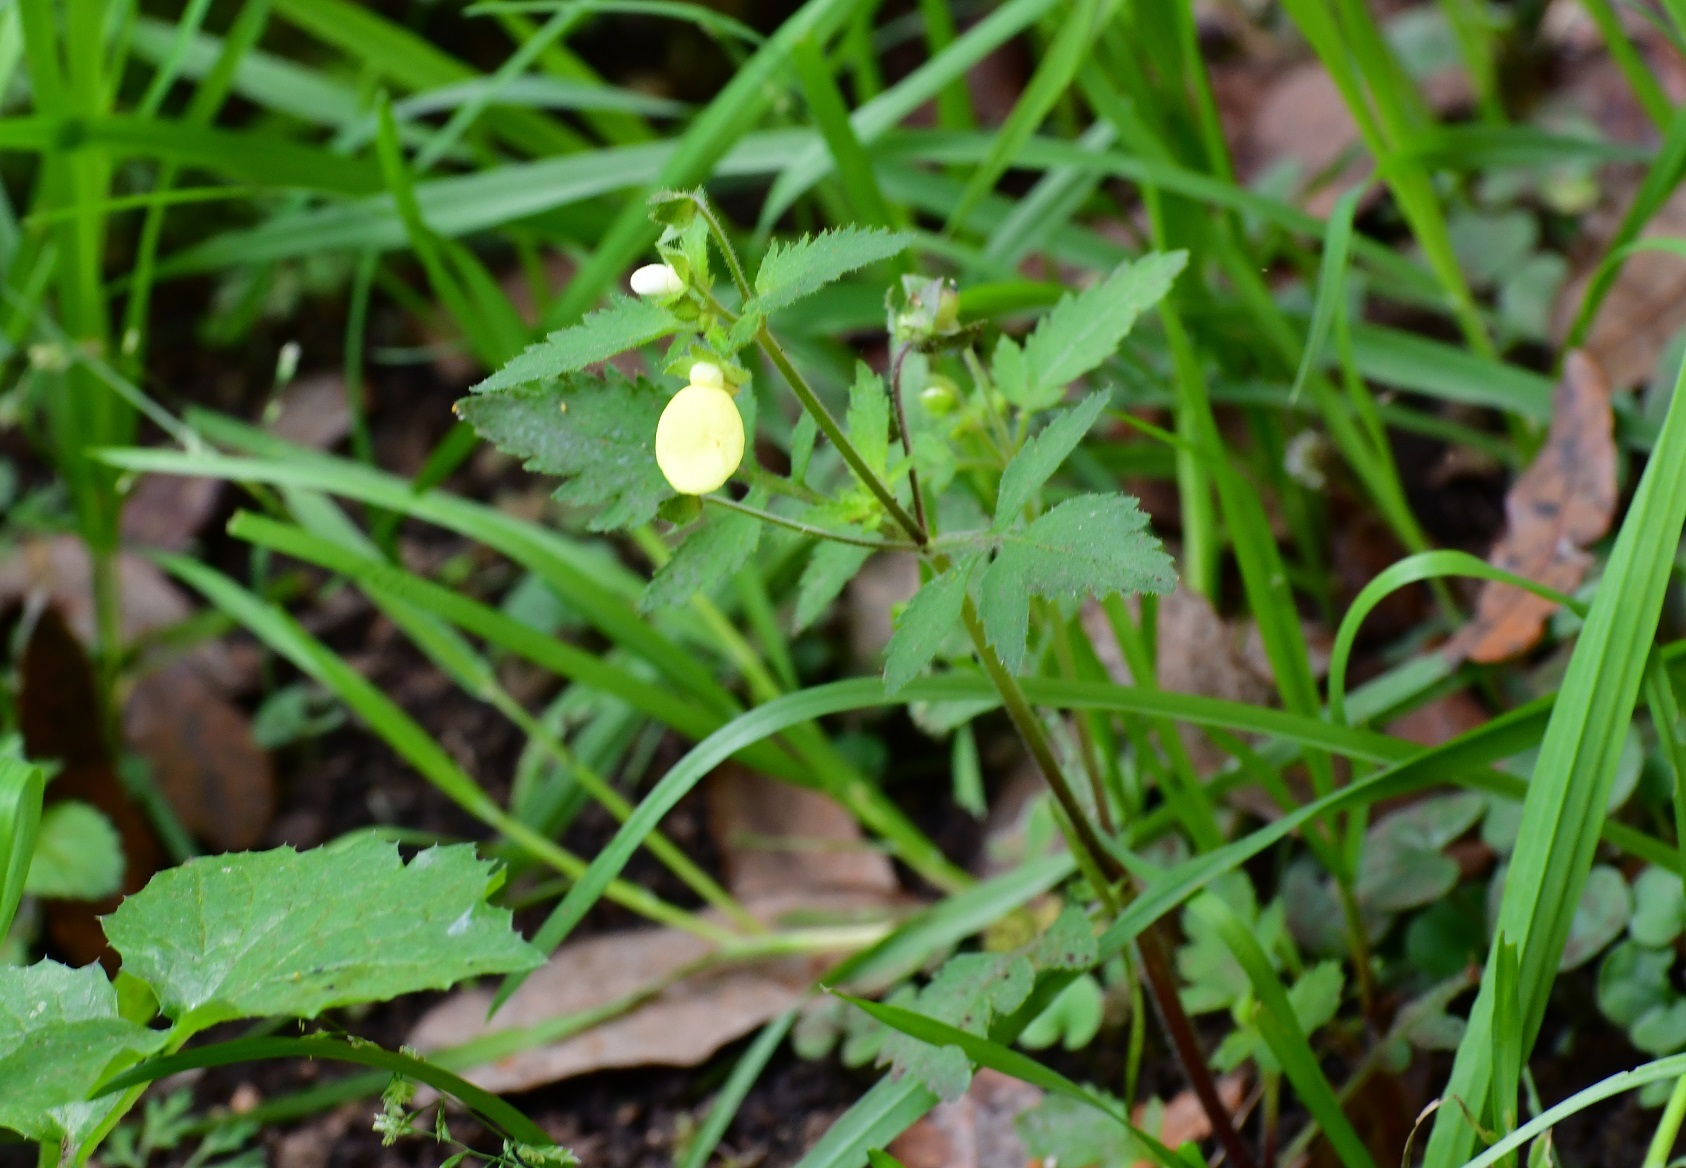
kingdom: Plantae
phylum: Tracheophyta
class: Magnoliopsida
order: Lamiales
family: Calceolariaceae
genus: Calceolaria
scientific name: Calceolaria tripartita
